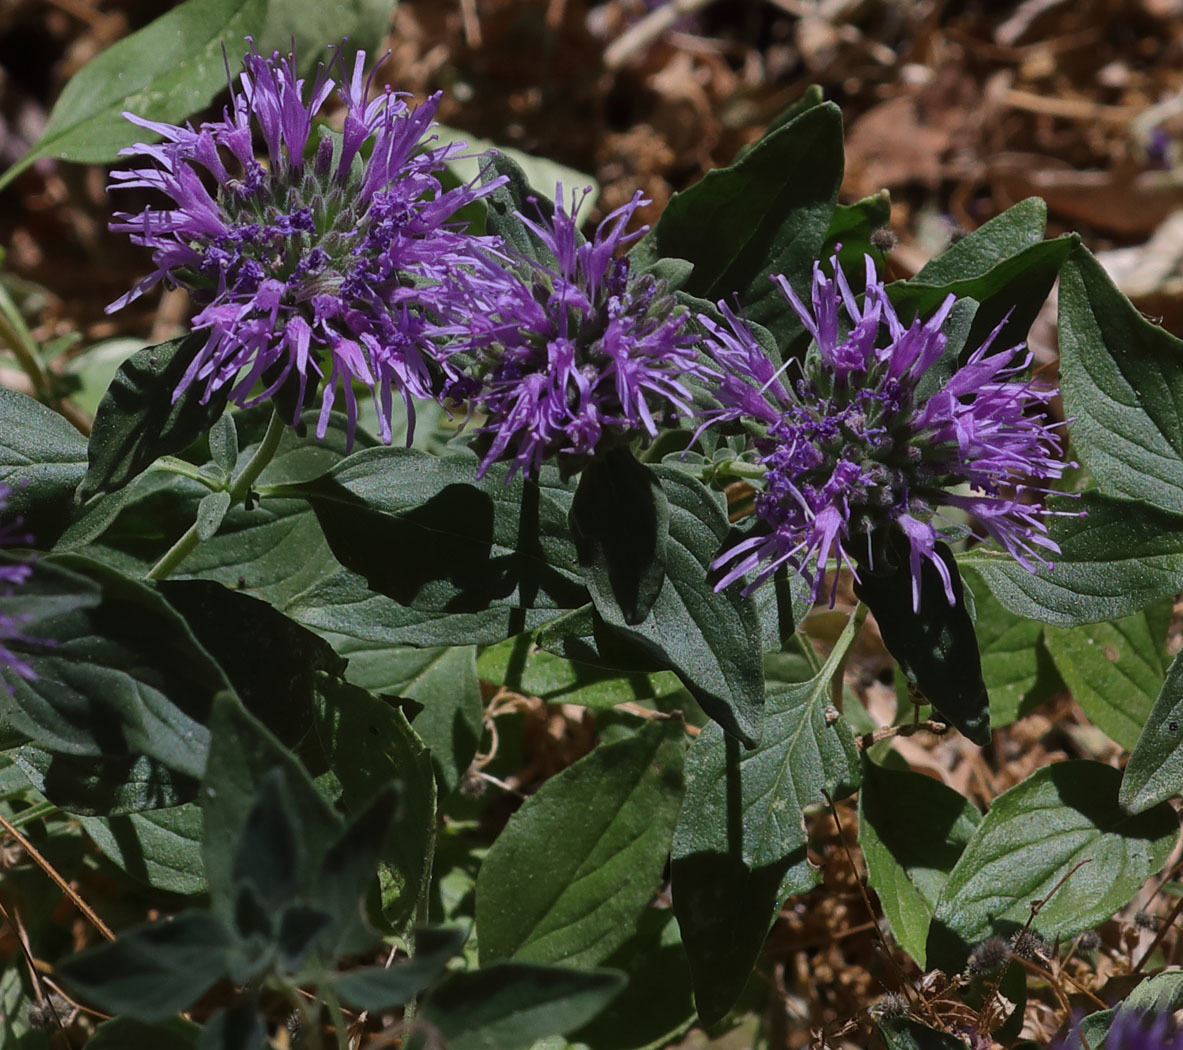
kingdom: Plantae
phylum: Tracheophyta
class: Magnoliopsida
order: Lamiales
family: Lamiaceae
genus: Monardella
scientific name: Monardella odoratissima
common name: Pacific monardella
